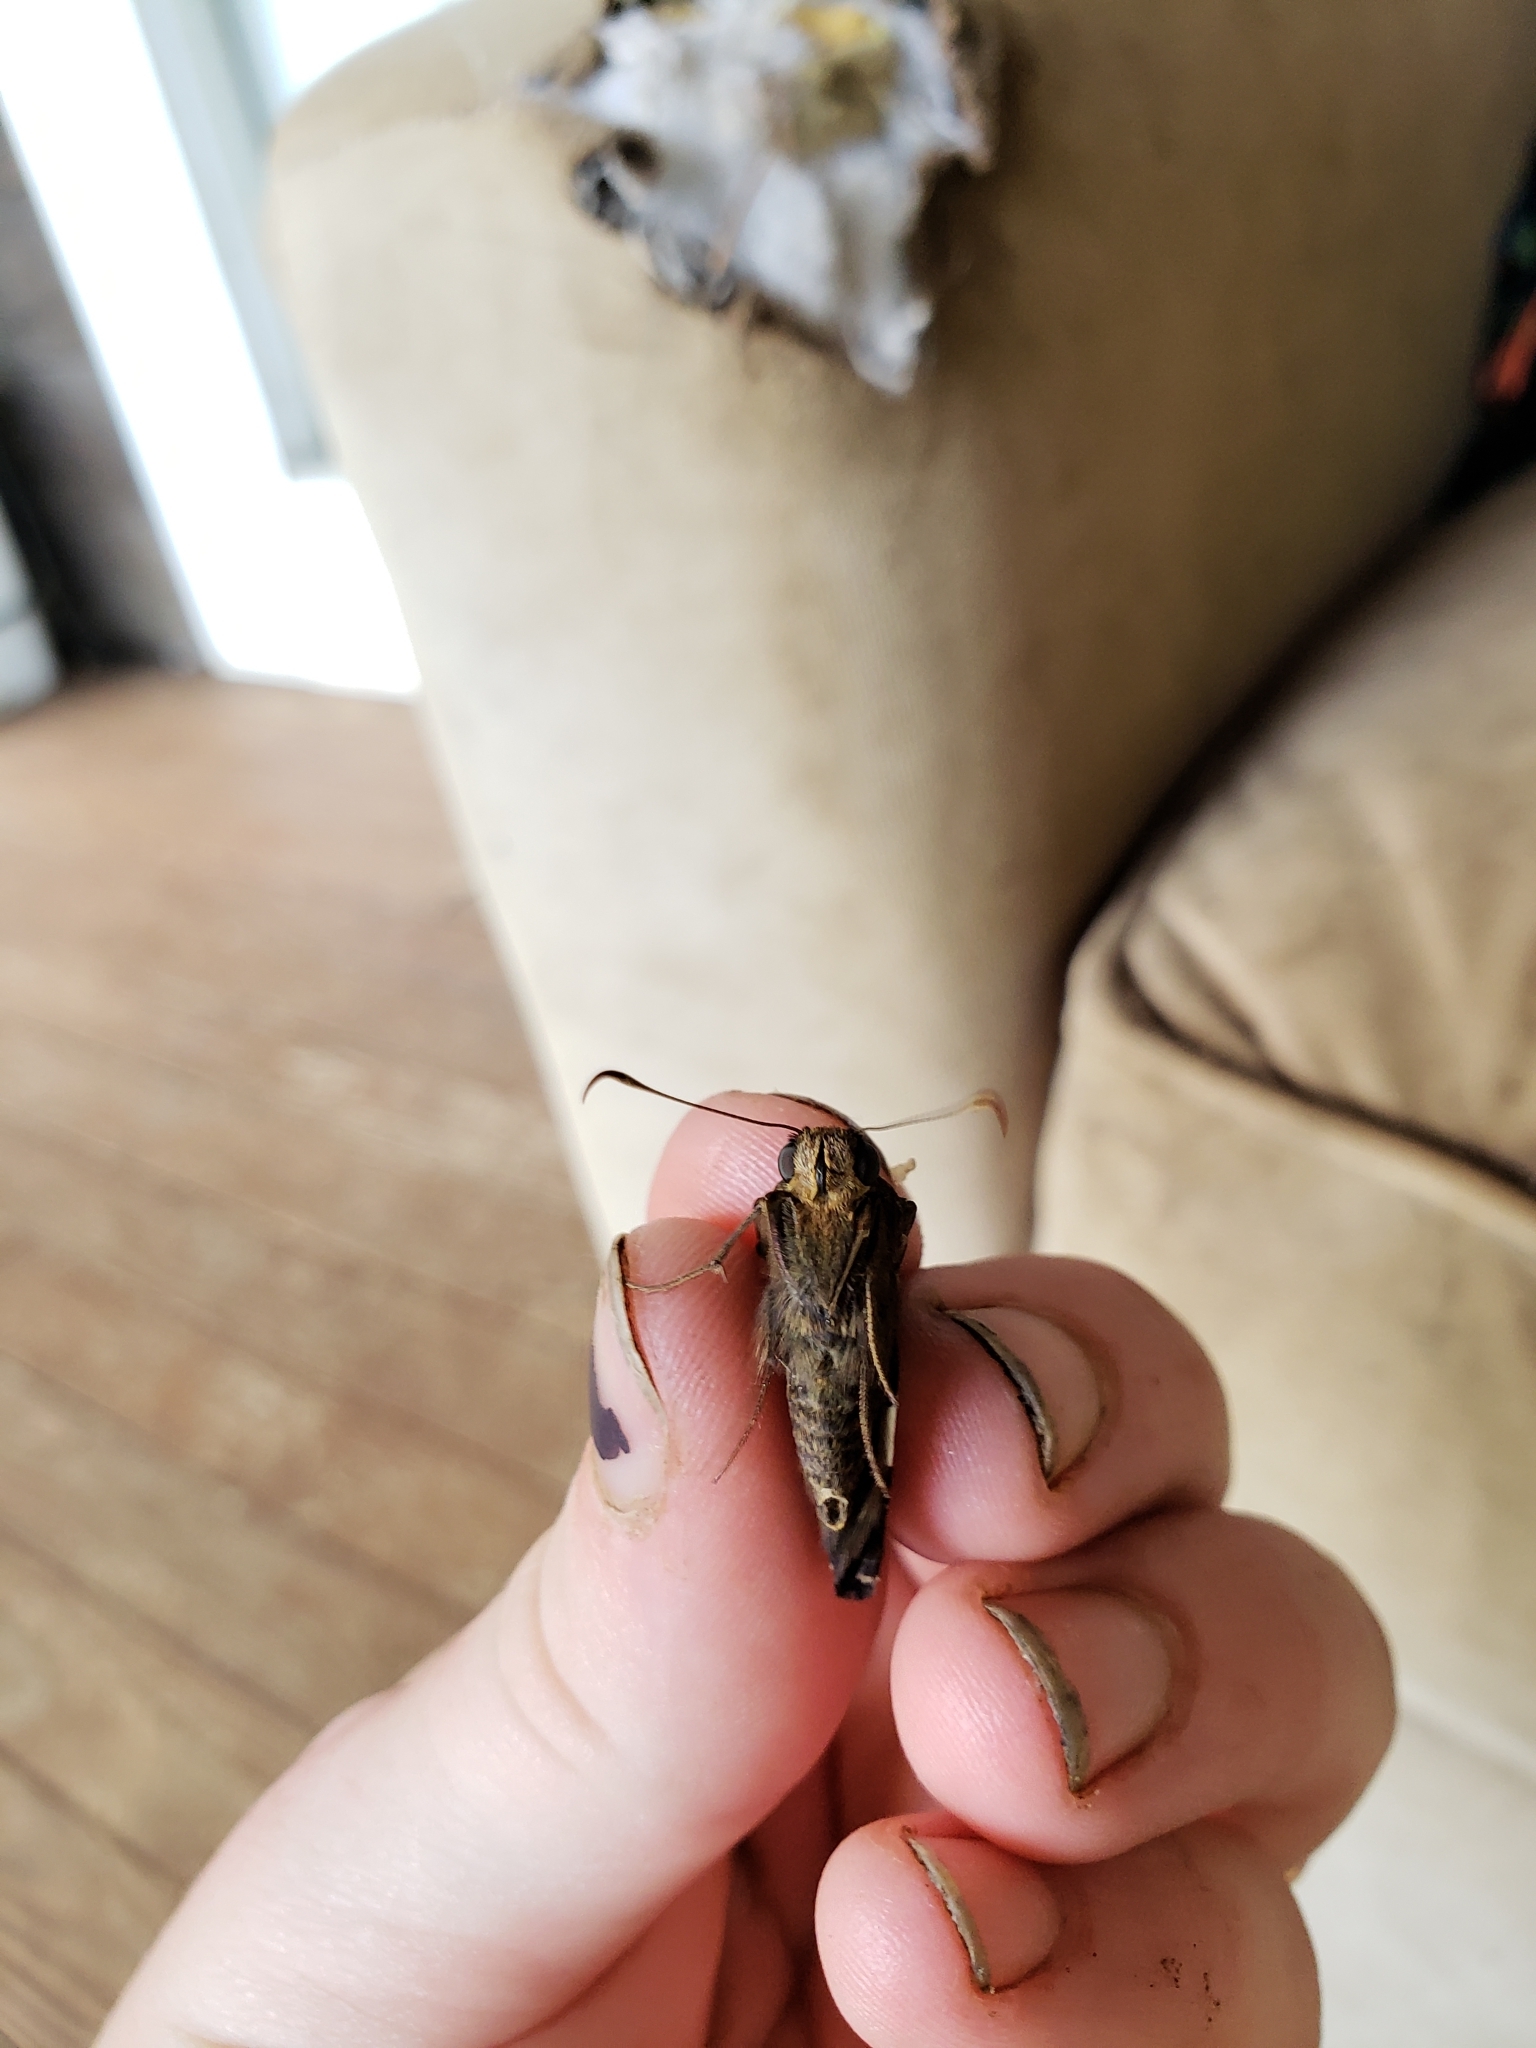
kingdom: Animalia
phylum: Arthropoda
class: Insecta
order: Lepidoptera
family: Hesperiidae
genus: Epargyreus
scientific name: Epargyreus clarus
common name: Silver-spotted skipper
